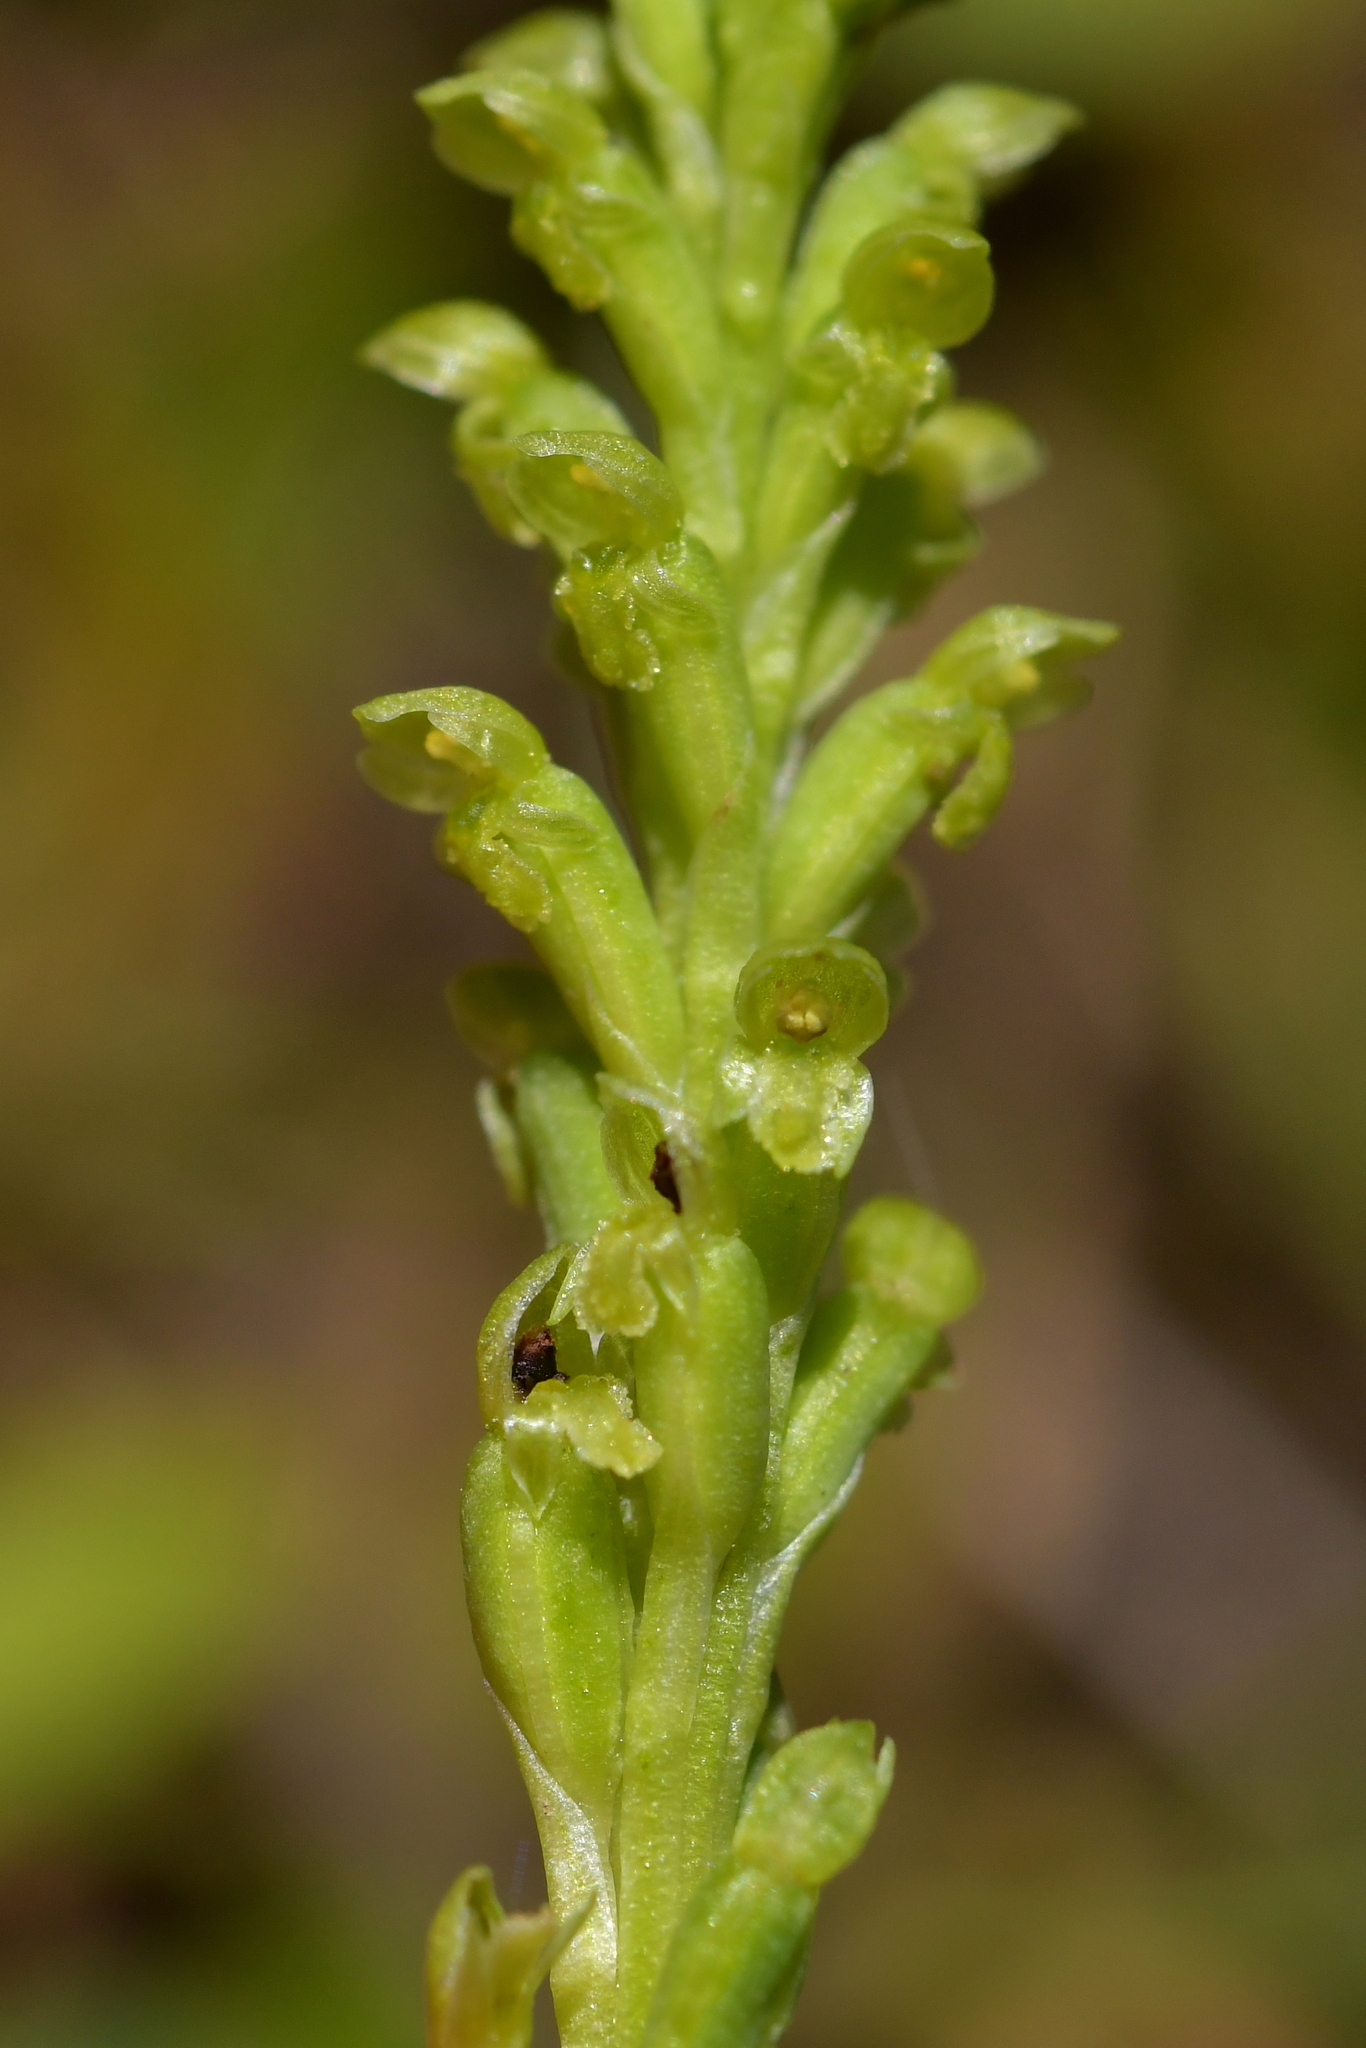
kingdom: Plantae
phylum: Tracheophyta
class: Liliopsida
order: Asparagales
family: Orchidaceae
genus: Microtis
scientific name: Microtis unifolia
